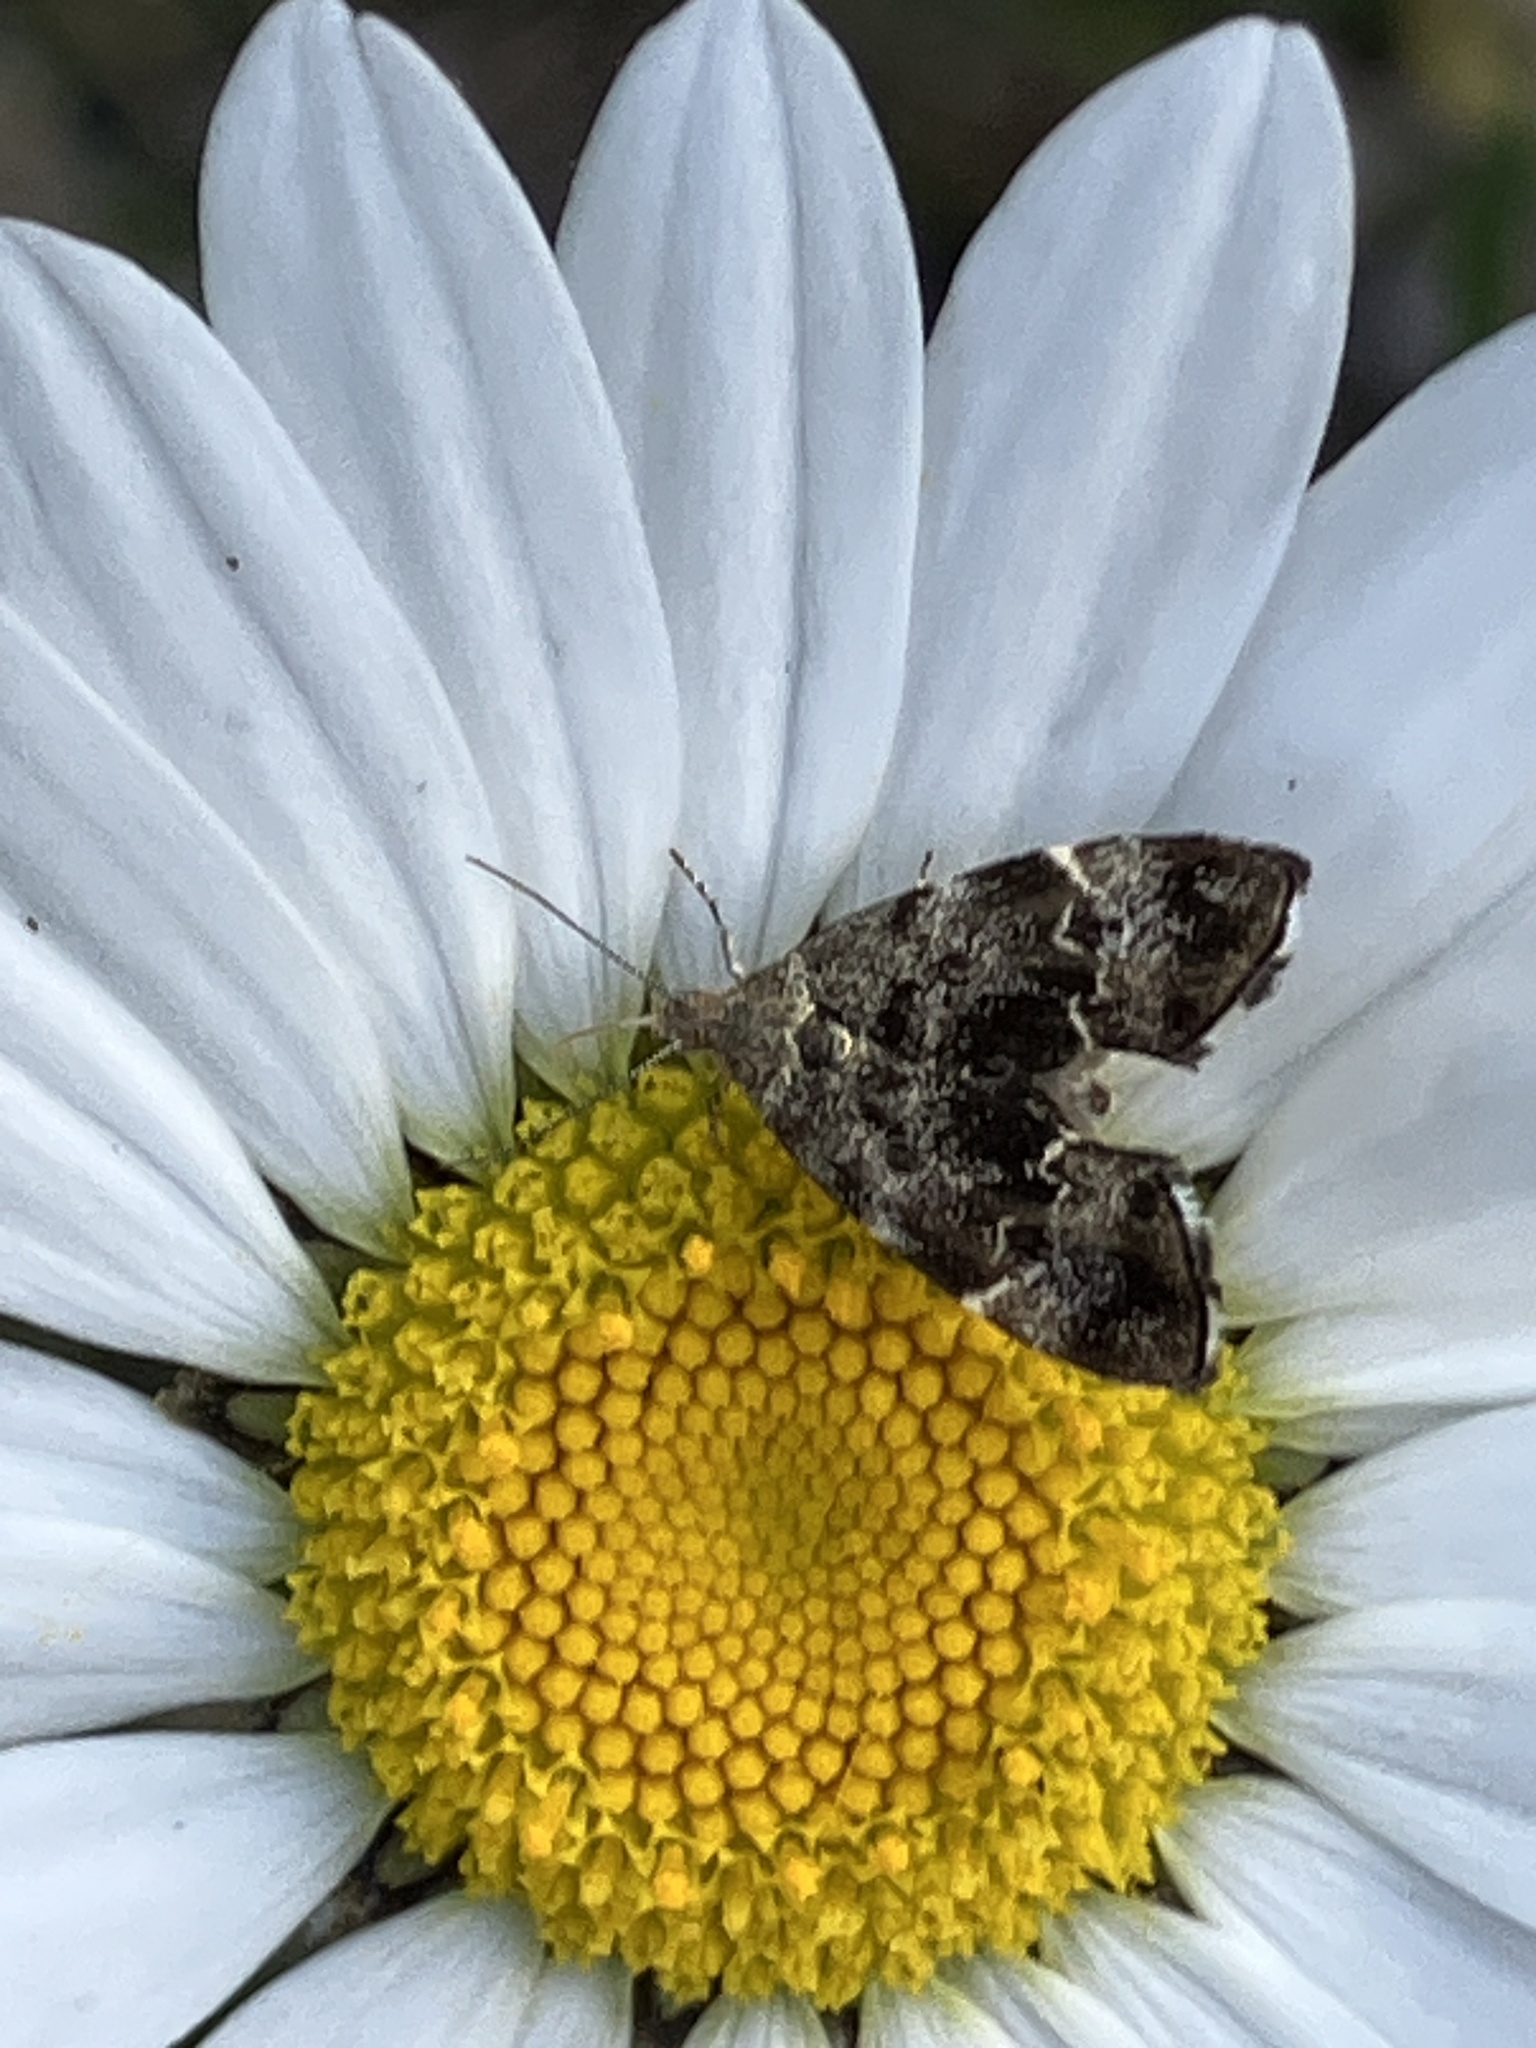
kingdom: Animalia
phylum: Arthropoda
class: Insecta
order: Lepidoptera
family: Choreutidae
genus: Anthophila
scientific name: Anthophila fabriciana
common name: Nettle-tap
